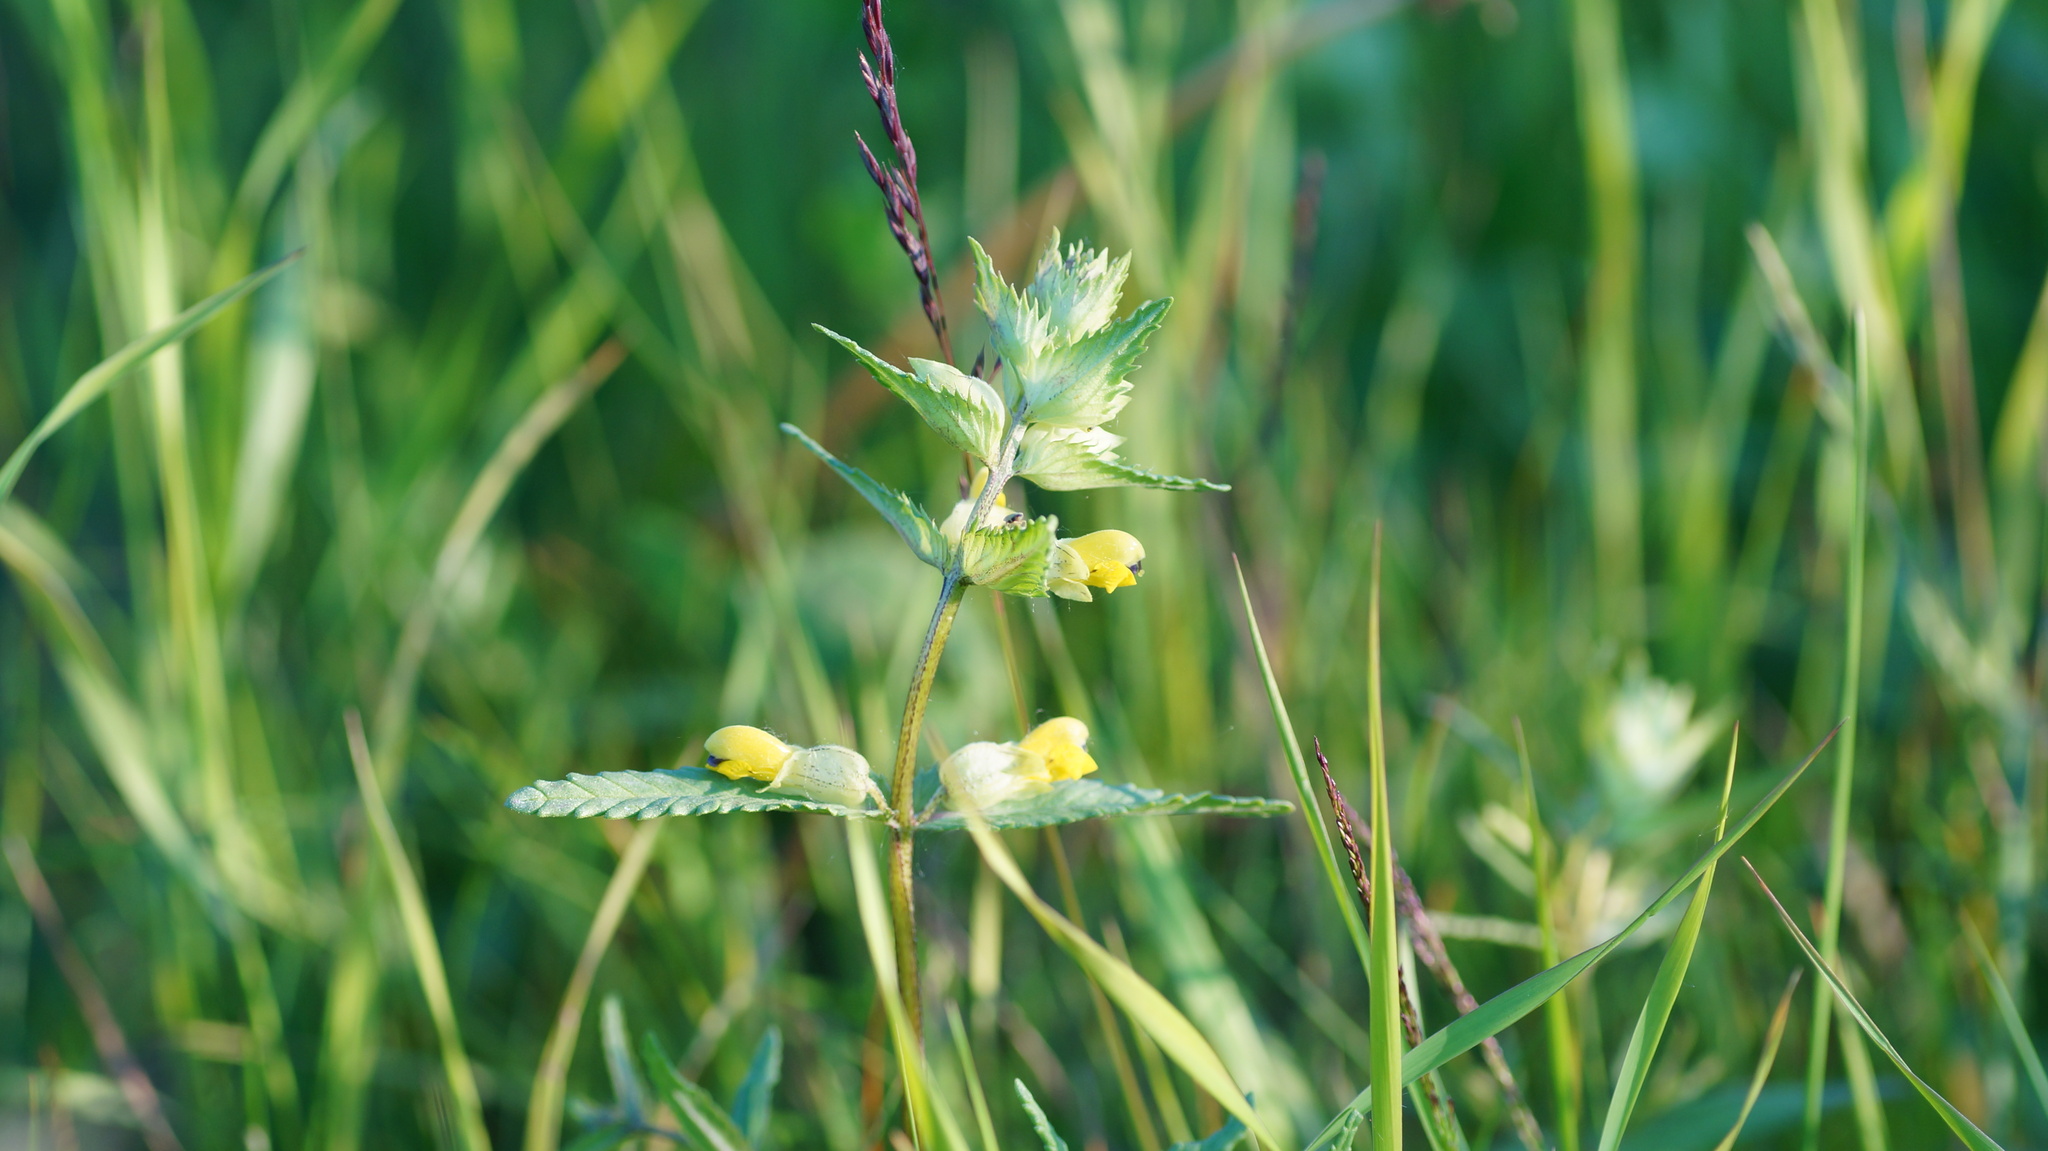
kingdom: Plantae
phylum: Tracheophyta
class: Magnoliopsida
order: Lamiales
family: Orobanchaceae
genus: Rhinanthus
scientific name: Rhinanthus minor
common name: Yellow-rattle
